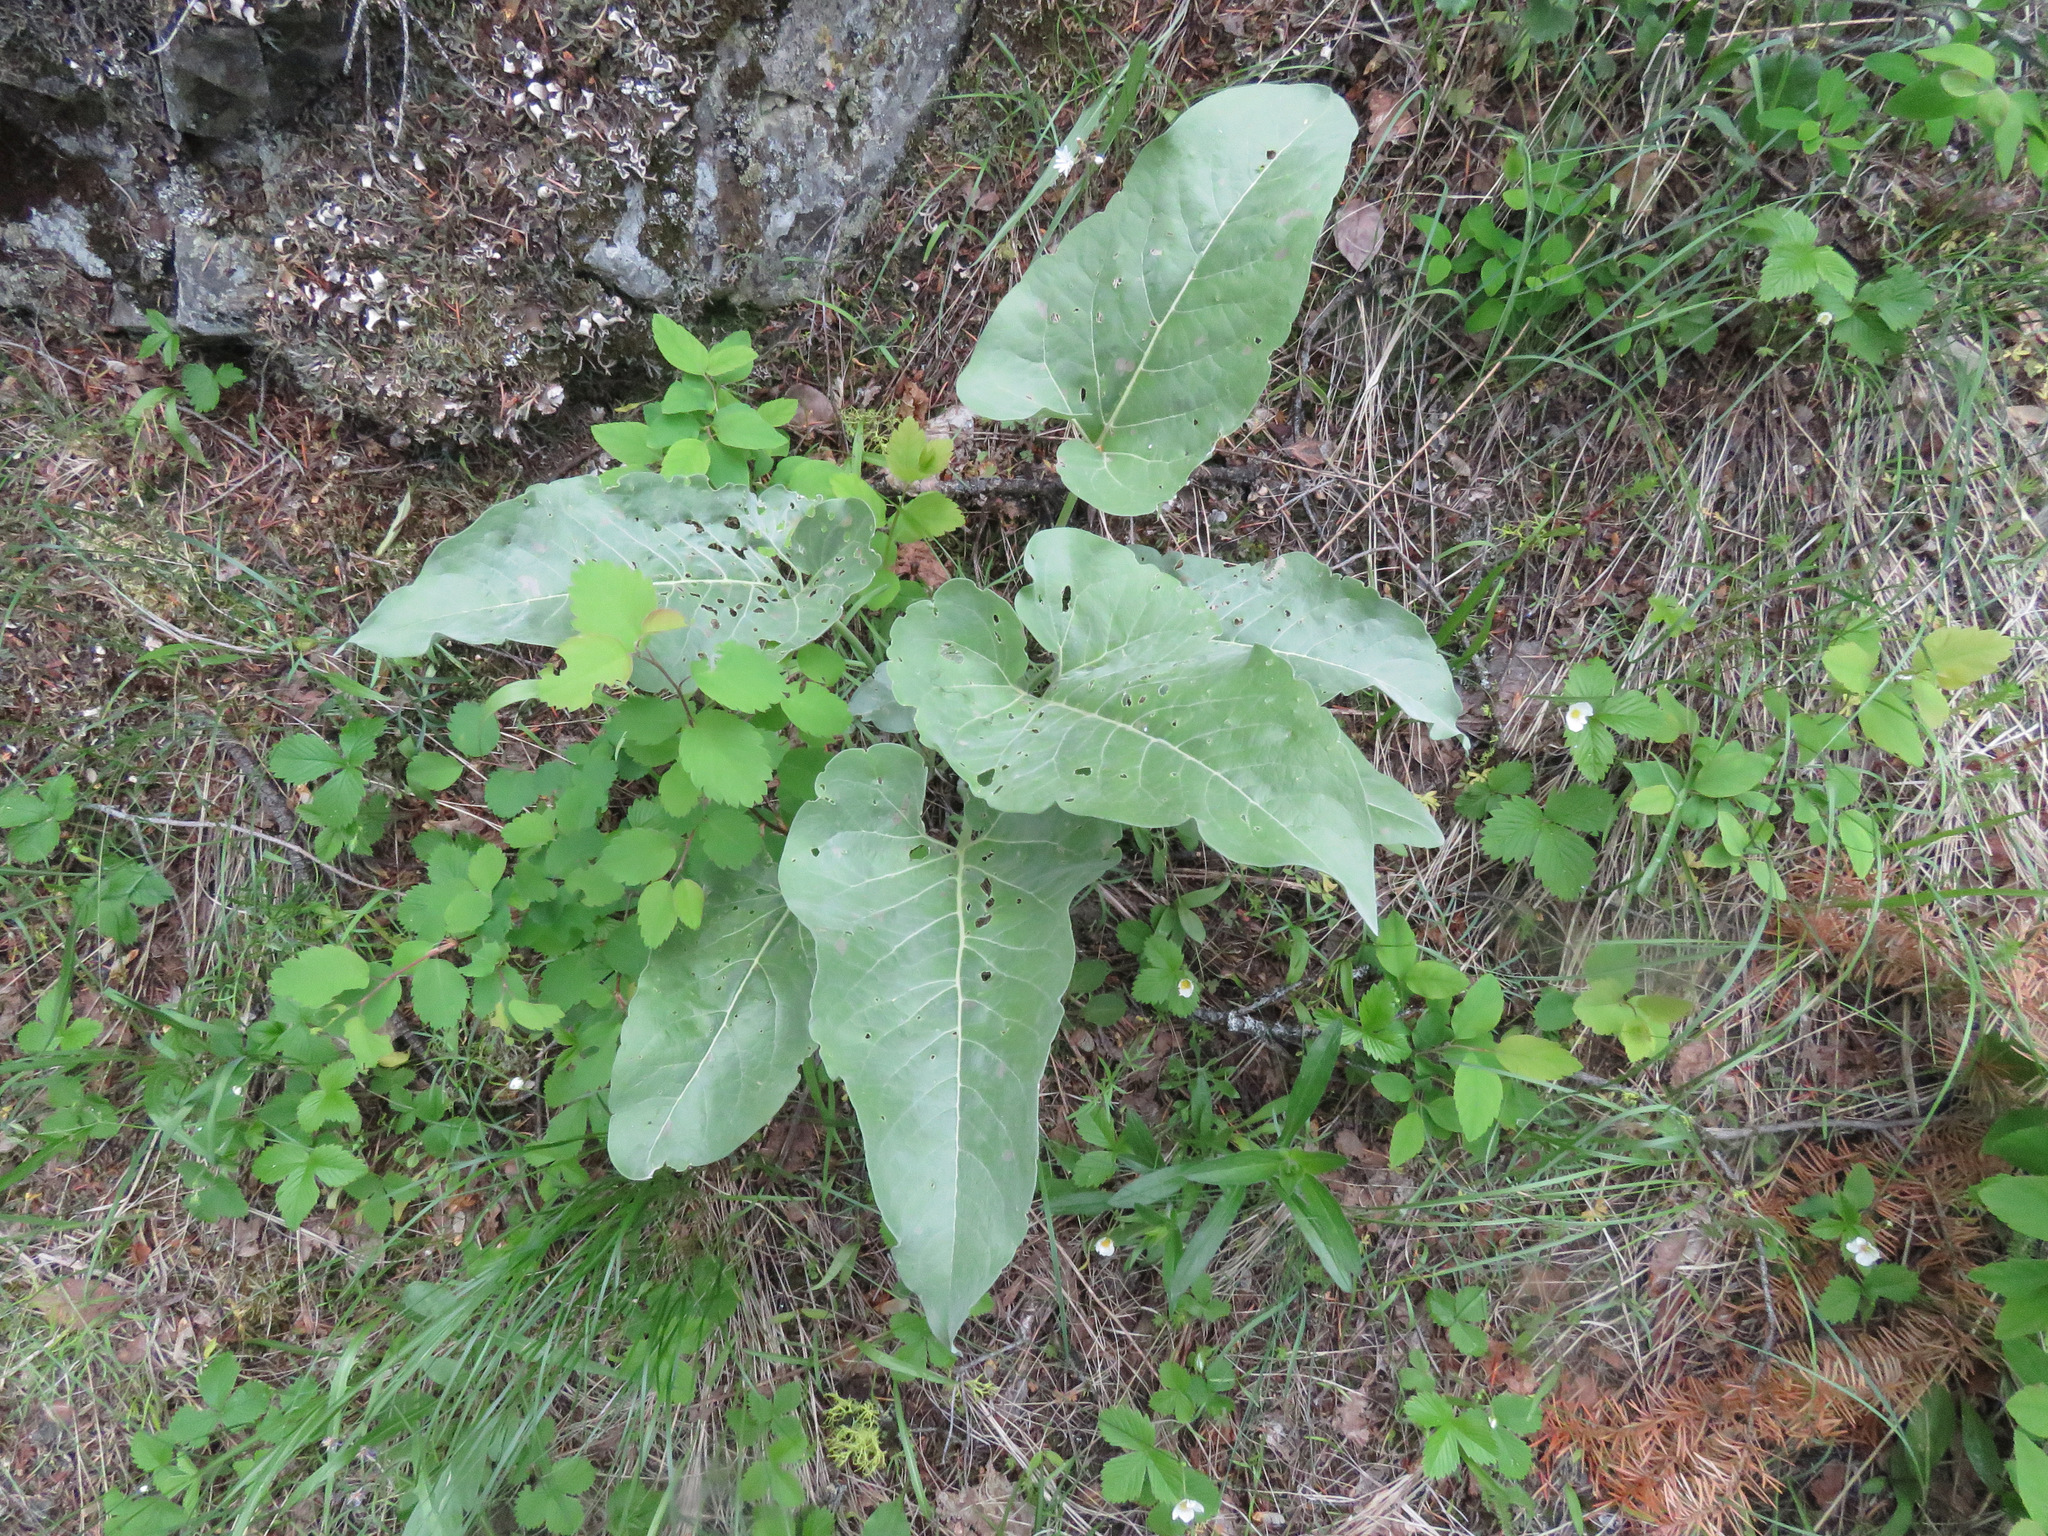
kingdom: Plantae
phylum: Tracheophyta
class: Magnoliopsida
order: Asterales
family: Asteraceae
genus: Wyethia
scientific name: Wyethia sagittata
